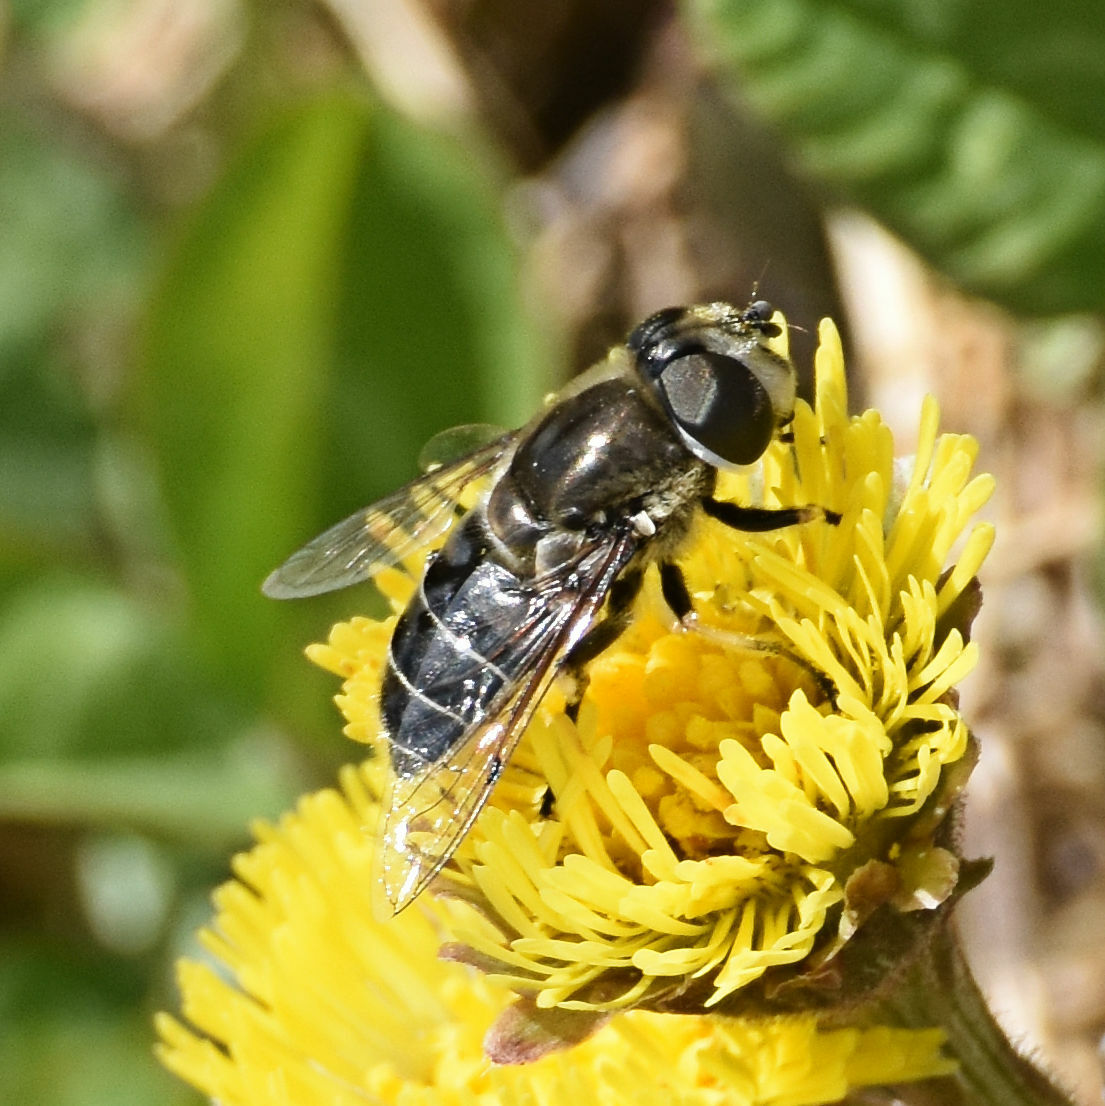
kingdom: Animalia
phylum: Arthropoda
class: Insecta
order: Diptera
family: Syrphidae
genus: Eristalis
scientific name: Eristalis dimidiata
